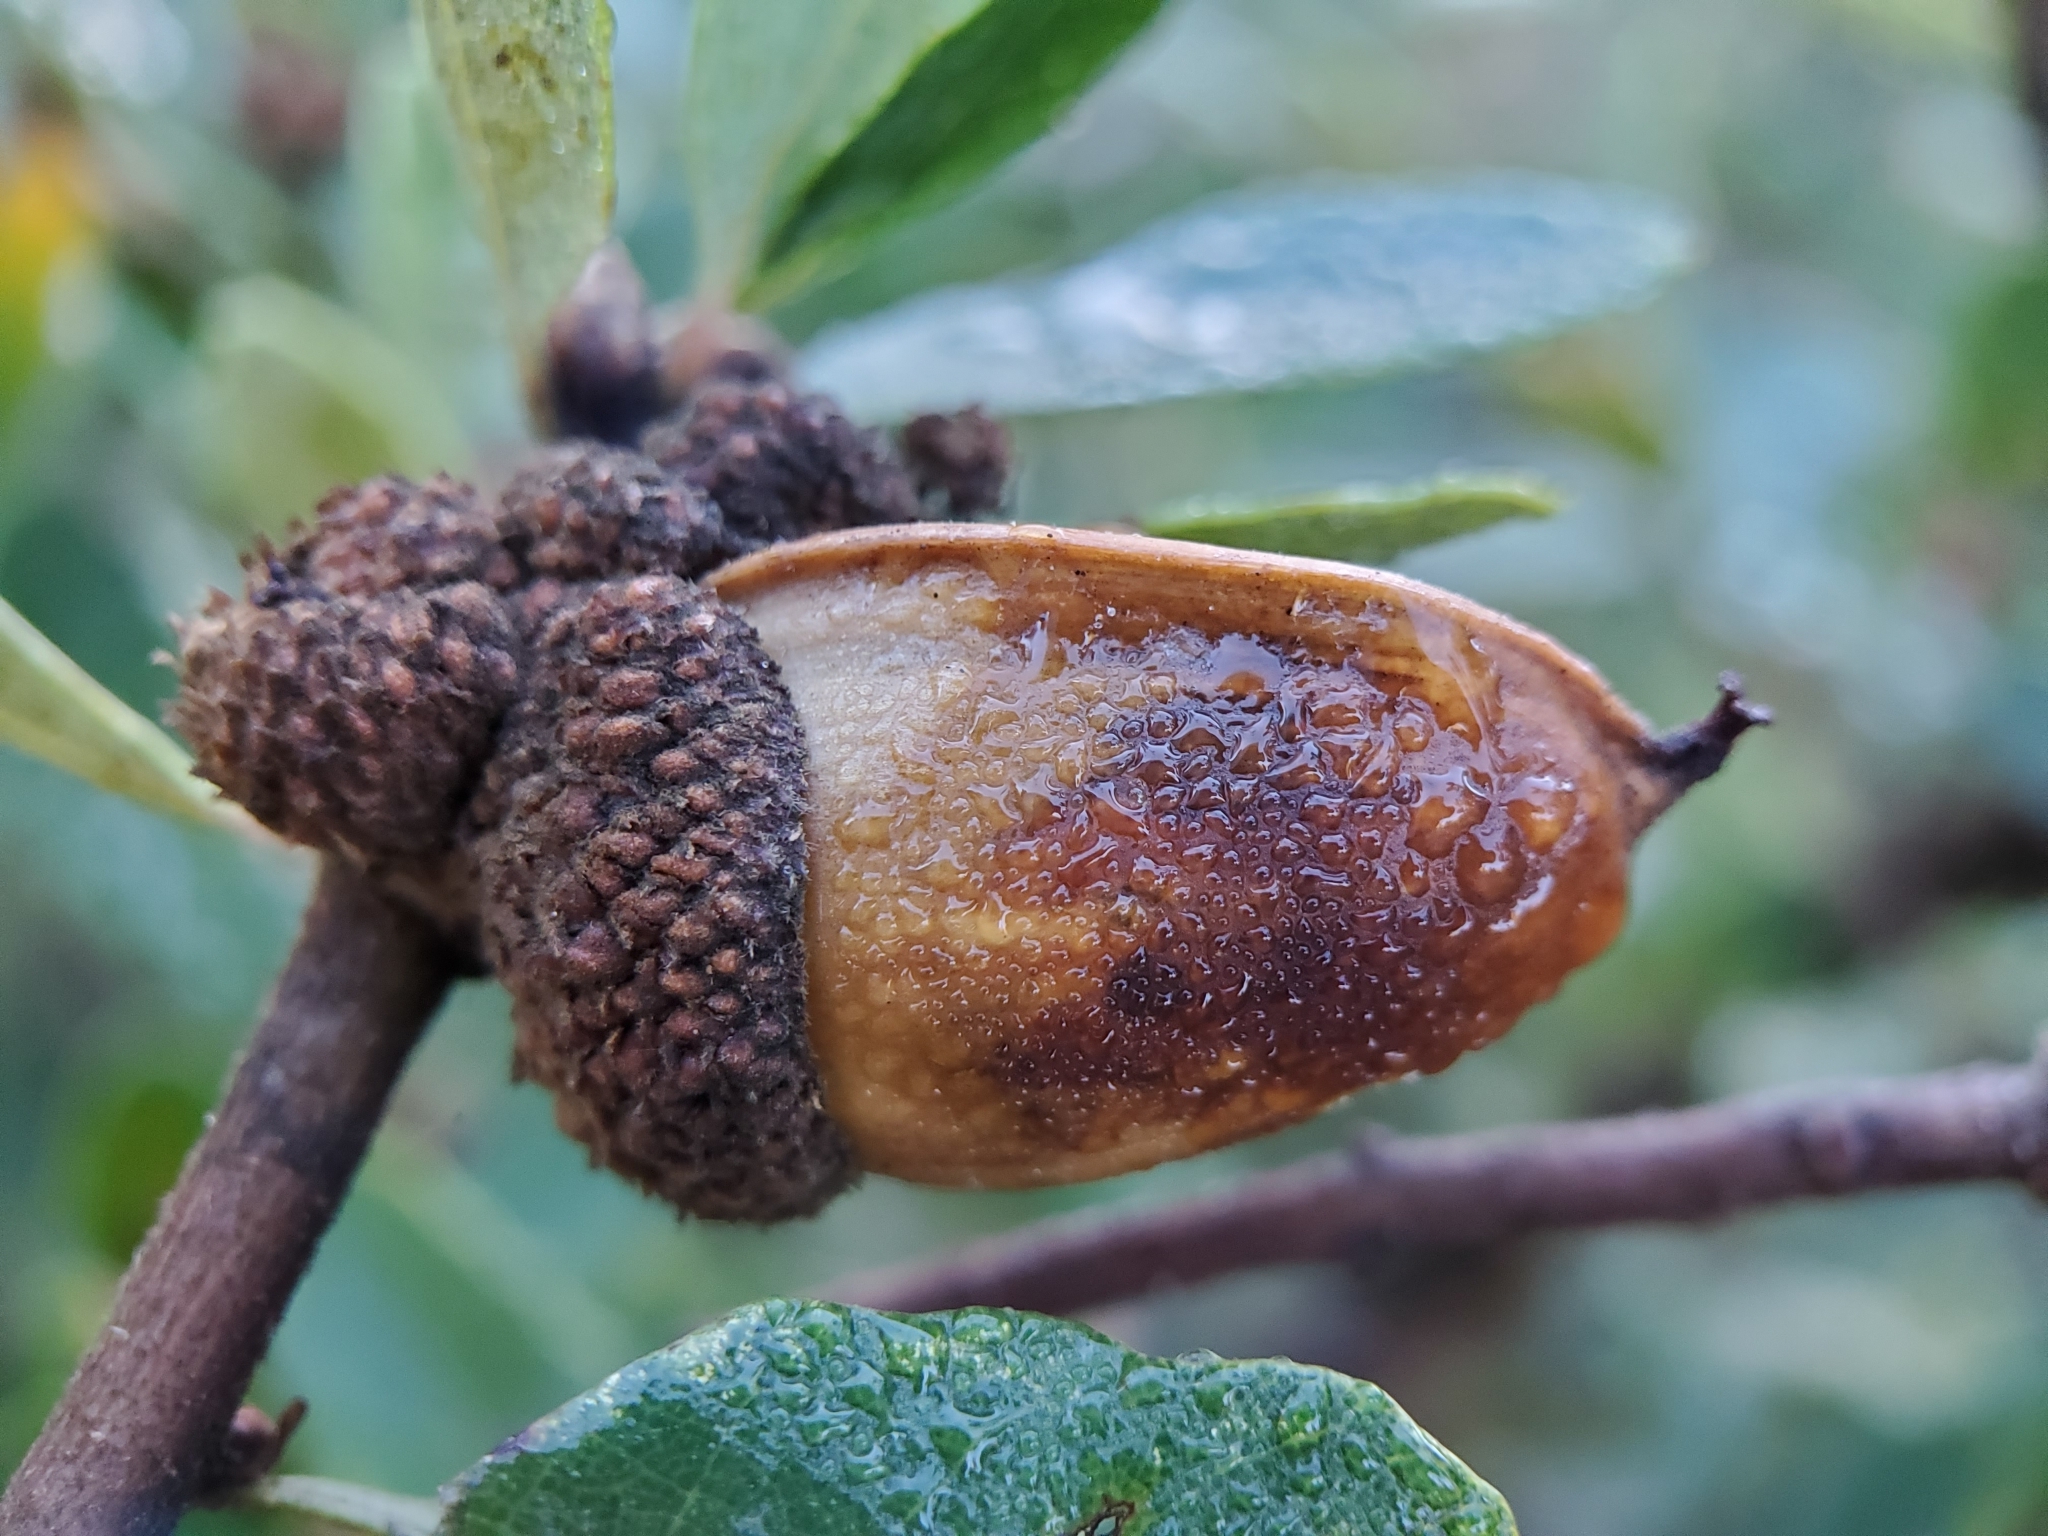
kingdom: Plantae
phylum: Tracheophyta
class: Magnoliopsida
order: Fagales
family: Fagaceae
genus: Quercus
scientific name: Quercus berberidifolia
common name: California scrub oak
